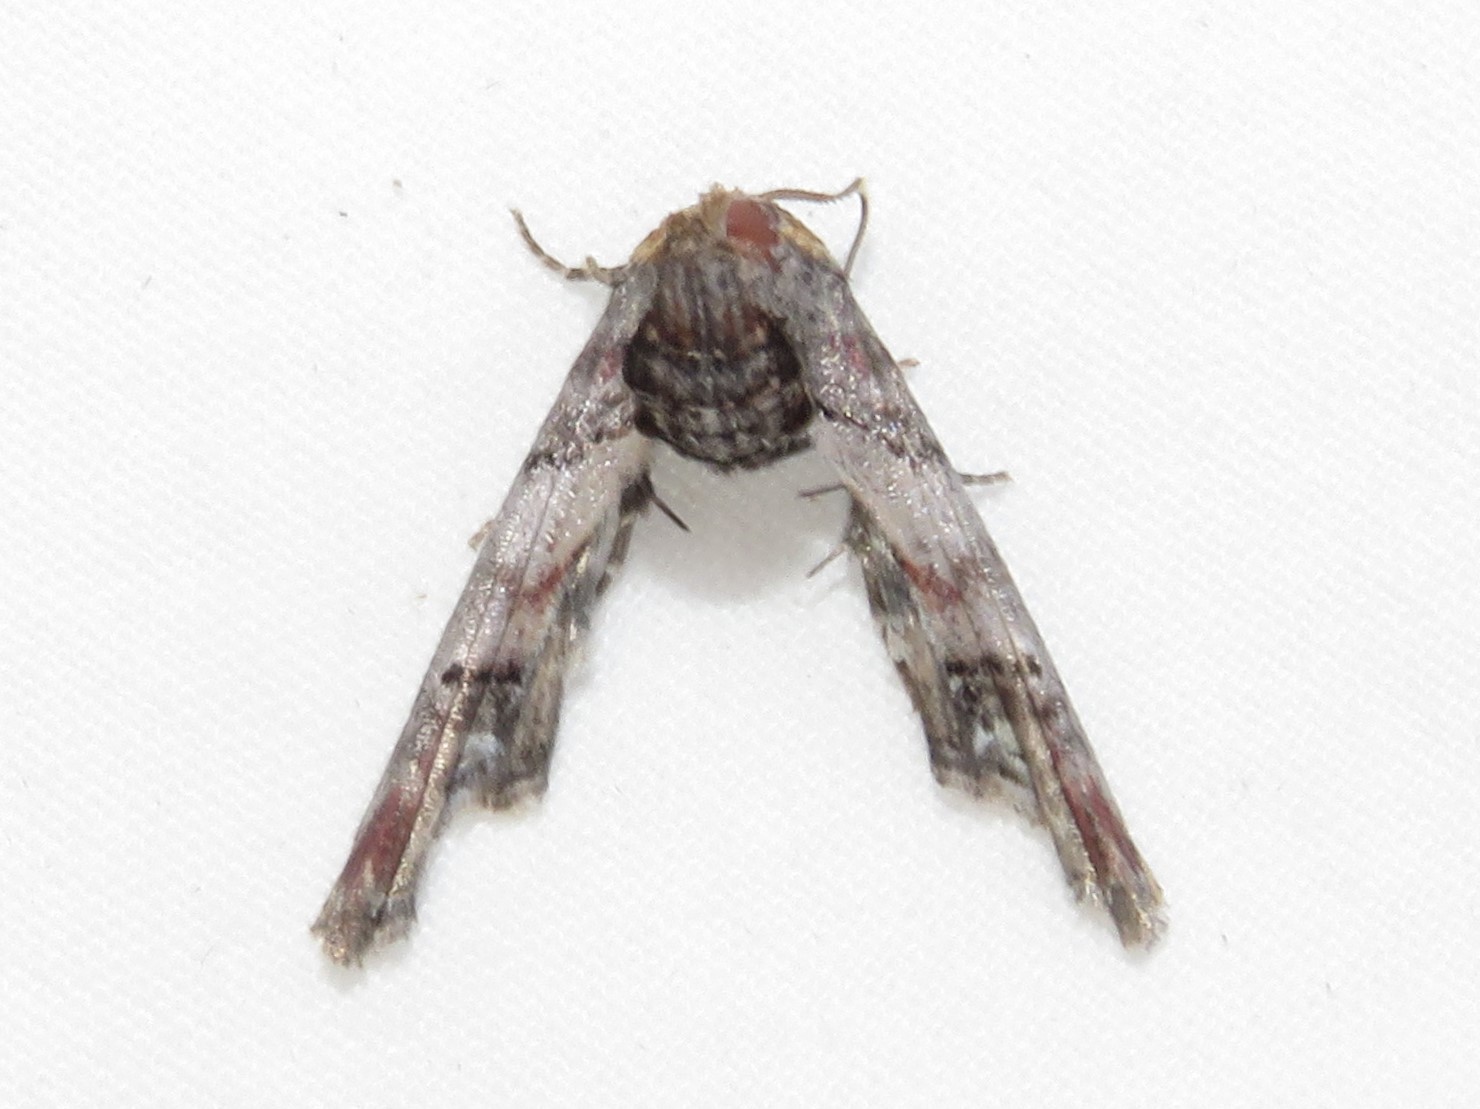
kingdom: Animalia
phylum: Arthropoda
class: Insecta
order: Lepidoptera
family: Euteliidae
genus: Marathyssa
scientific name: Marathyssa inficita
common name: Dark marathyssa moth
